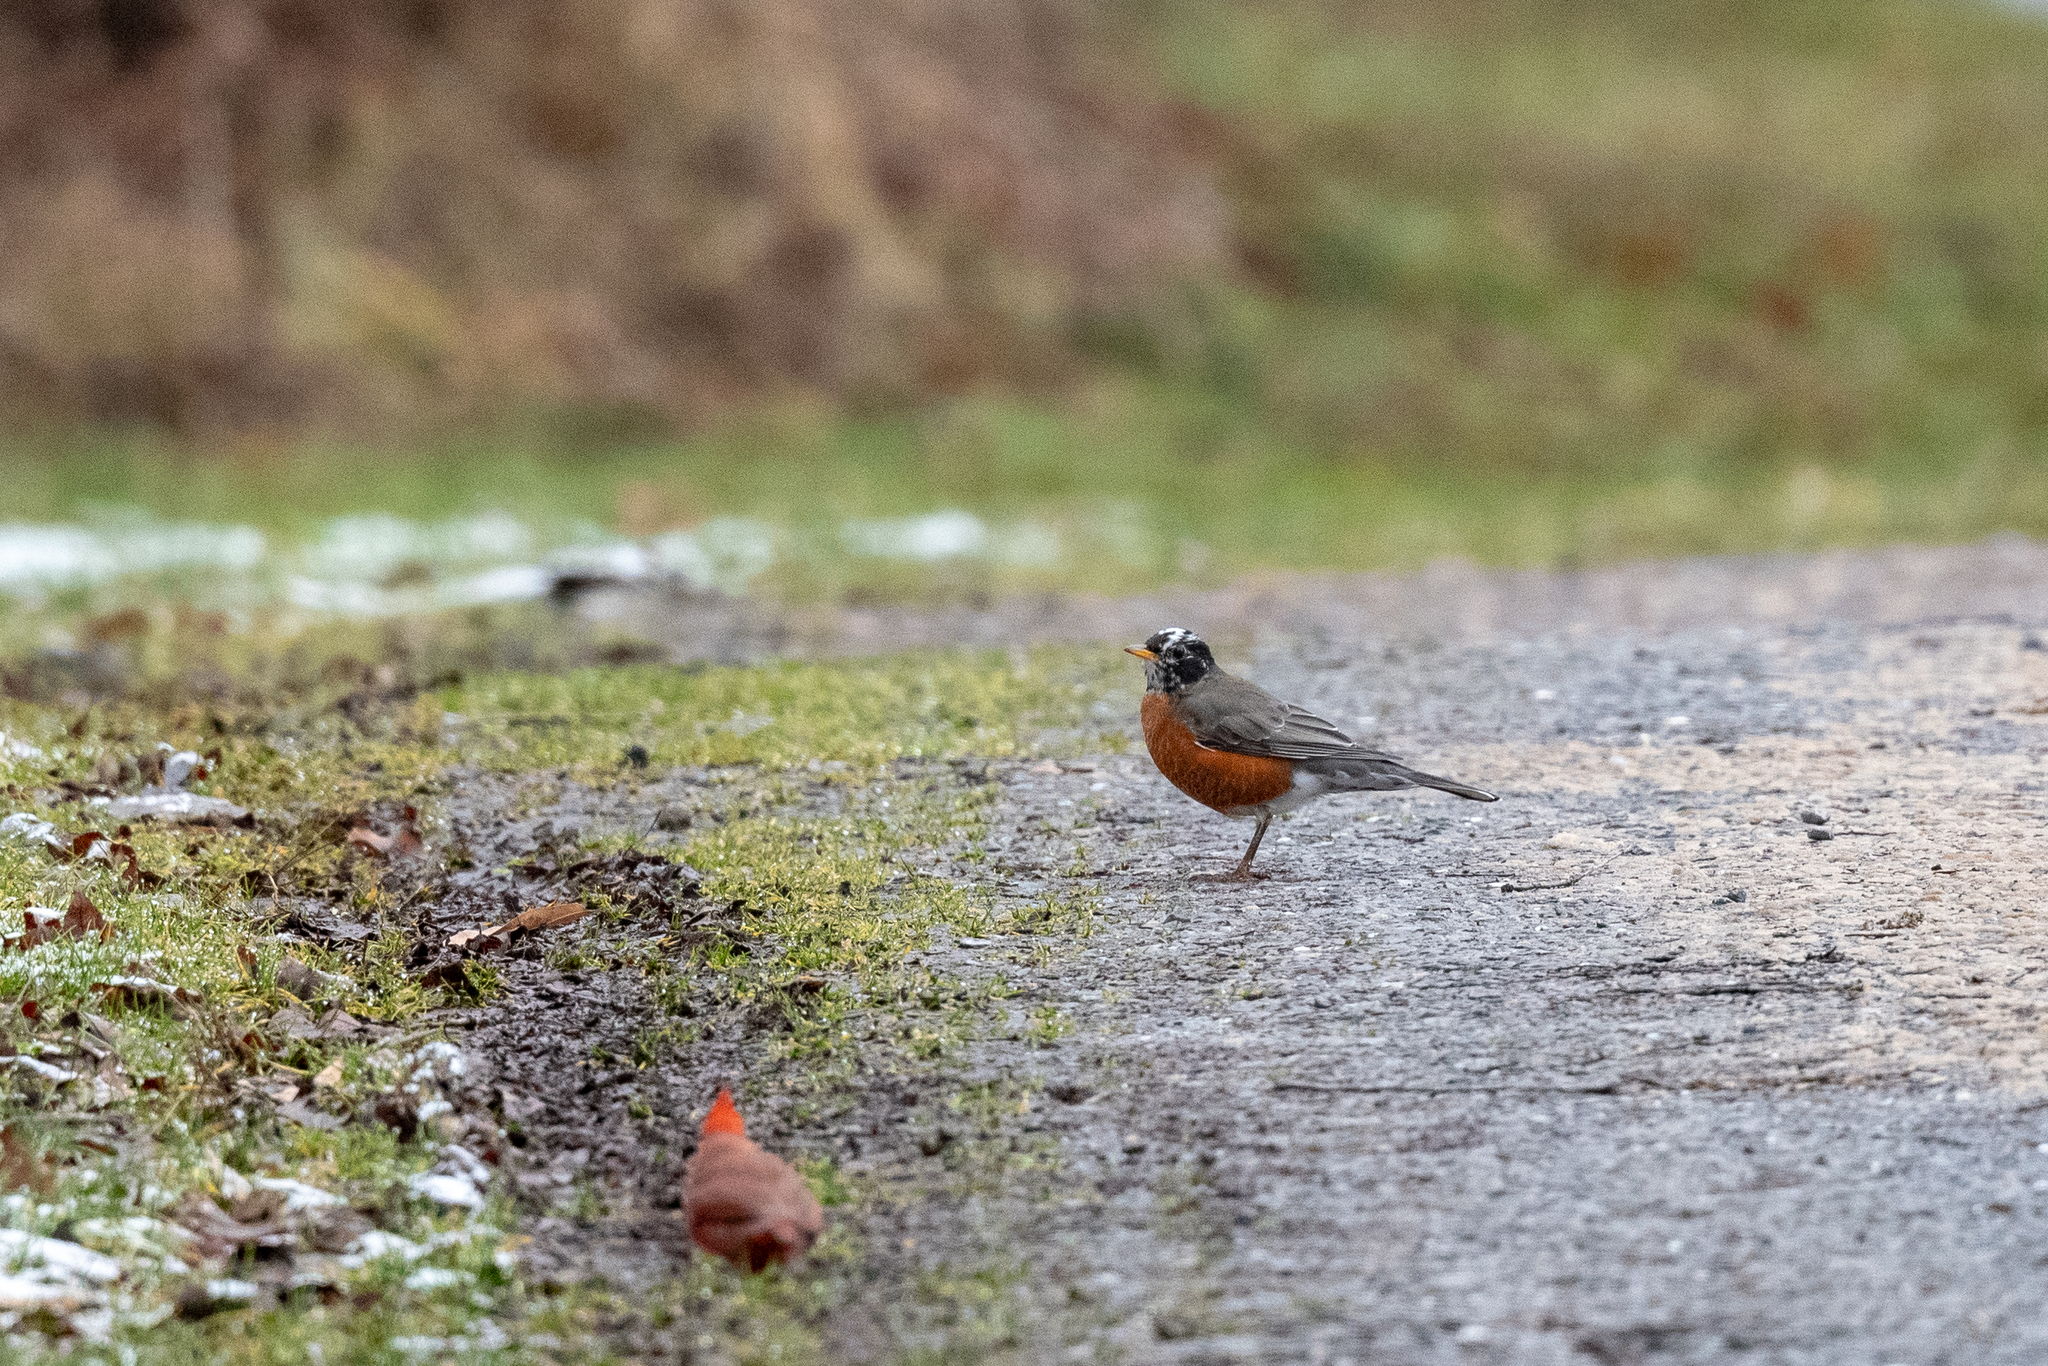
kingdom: Animalia
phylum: Chordata
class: Aves
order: Passeriformes
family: Turdidae
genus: Turdus
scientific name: Turdus migratorius
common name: American robin
